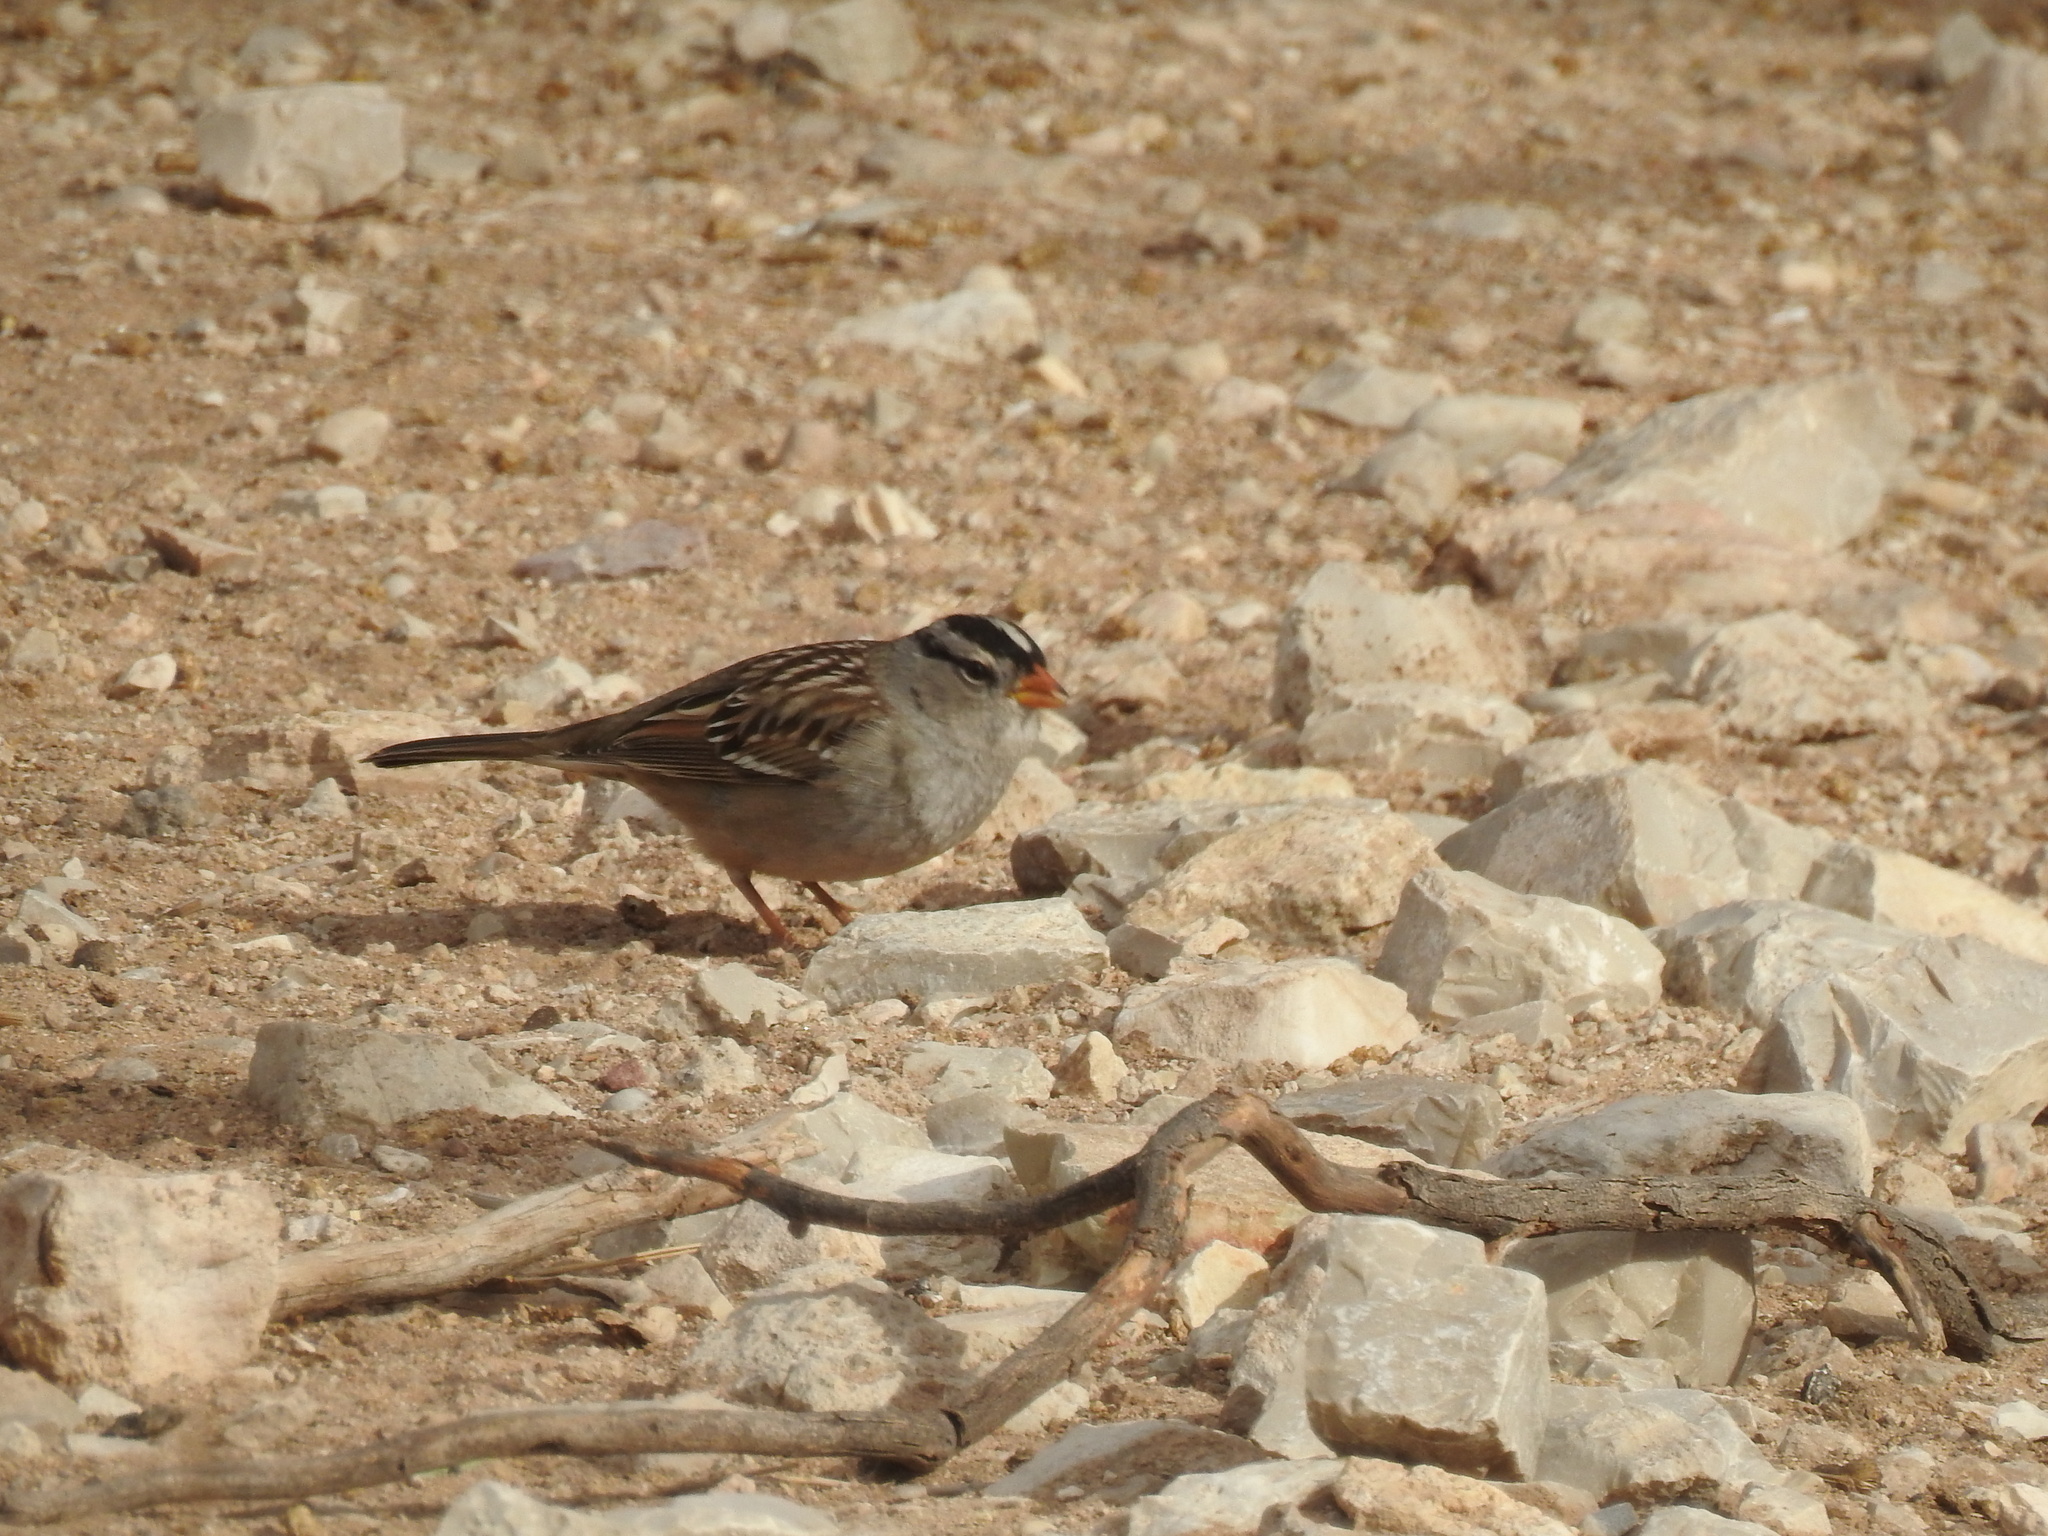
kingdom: Animalia
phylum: Chordata
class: Aves
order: Passeriformes
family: Passerellidae
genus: Zonotrichia
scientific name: Zonotrichia leucophrys
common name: White-crowned sparrow
